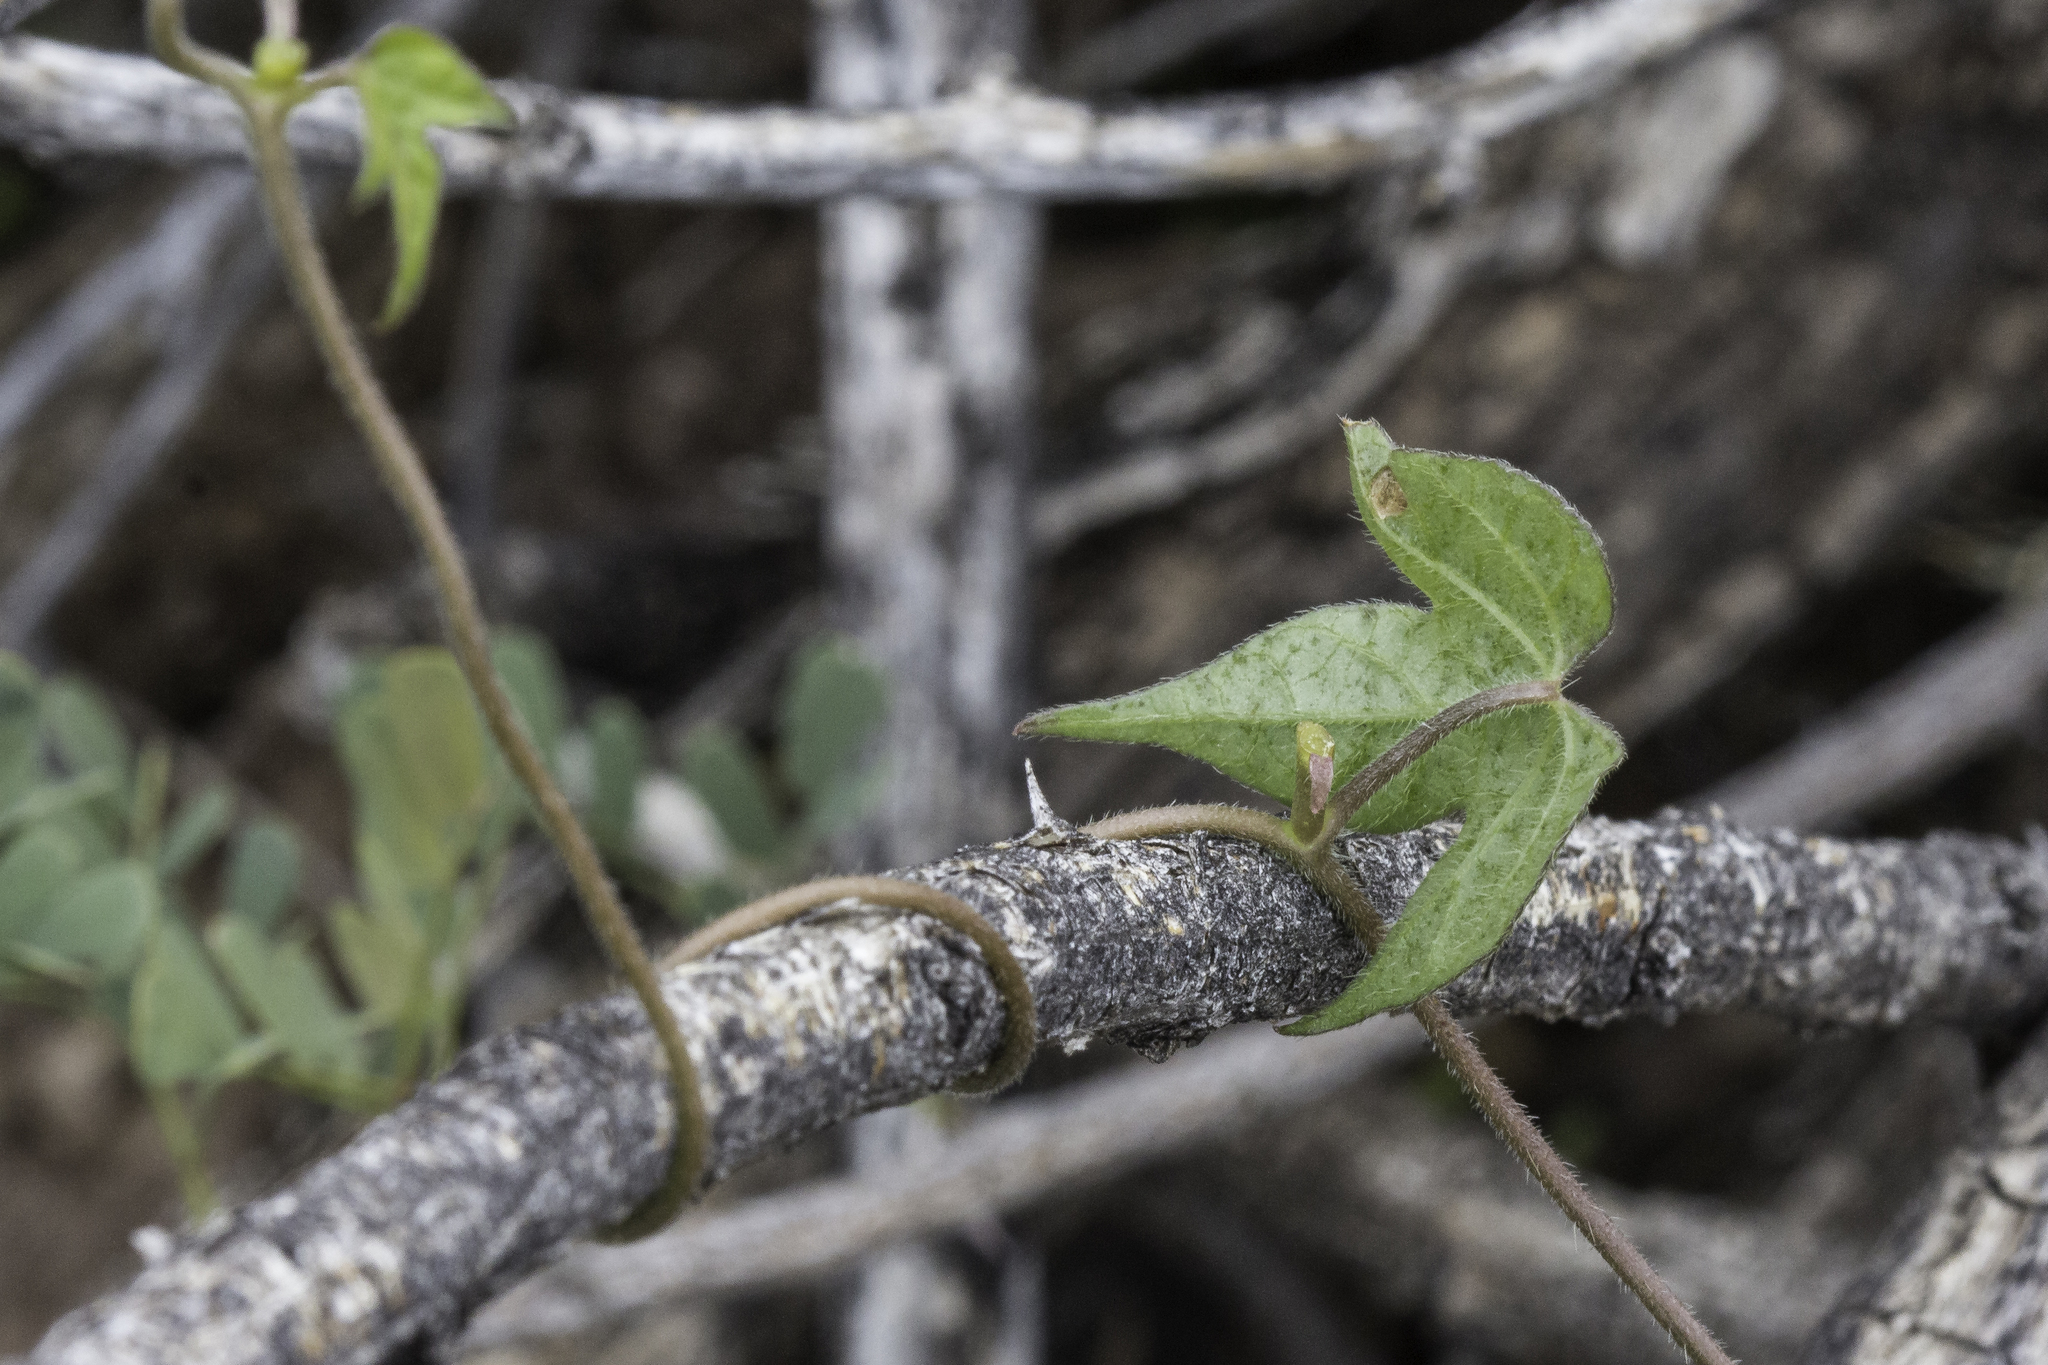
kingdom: Plantae
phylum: Tracheophyta
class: Magnoliopsida
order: Solanales
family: Convolvulaceae
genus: Ipomoea
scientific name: Ipomoea hederacea
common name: Ivy-leaved morning-glory
